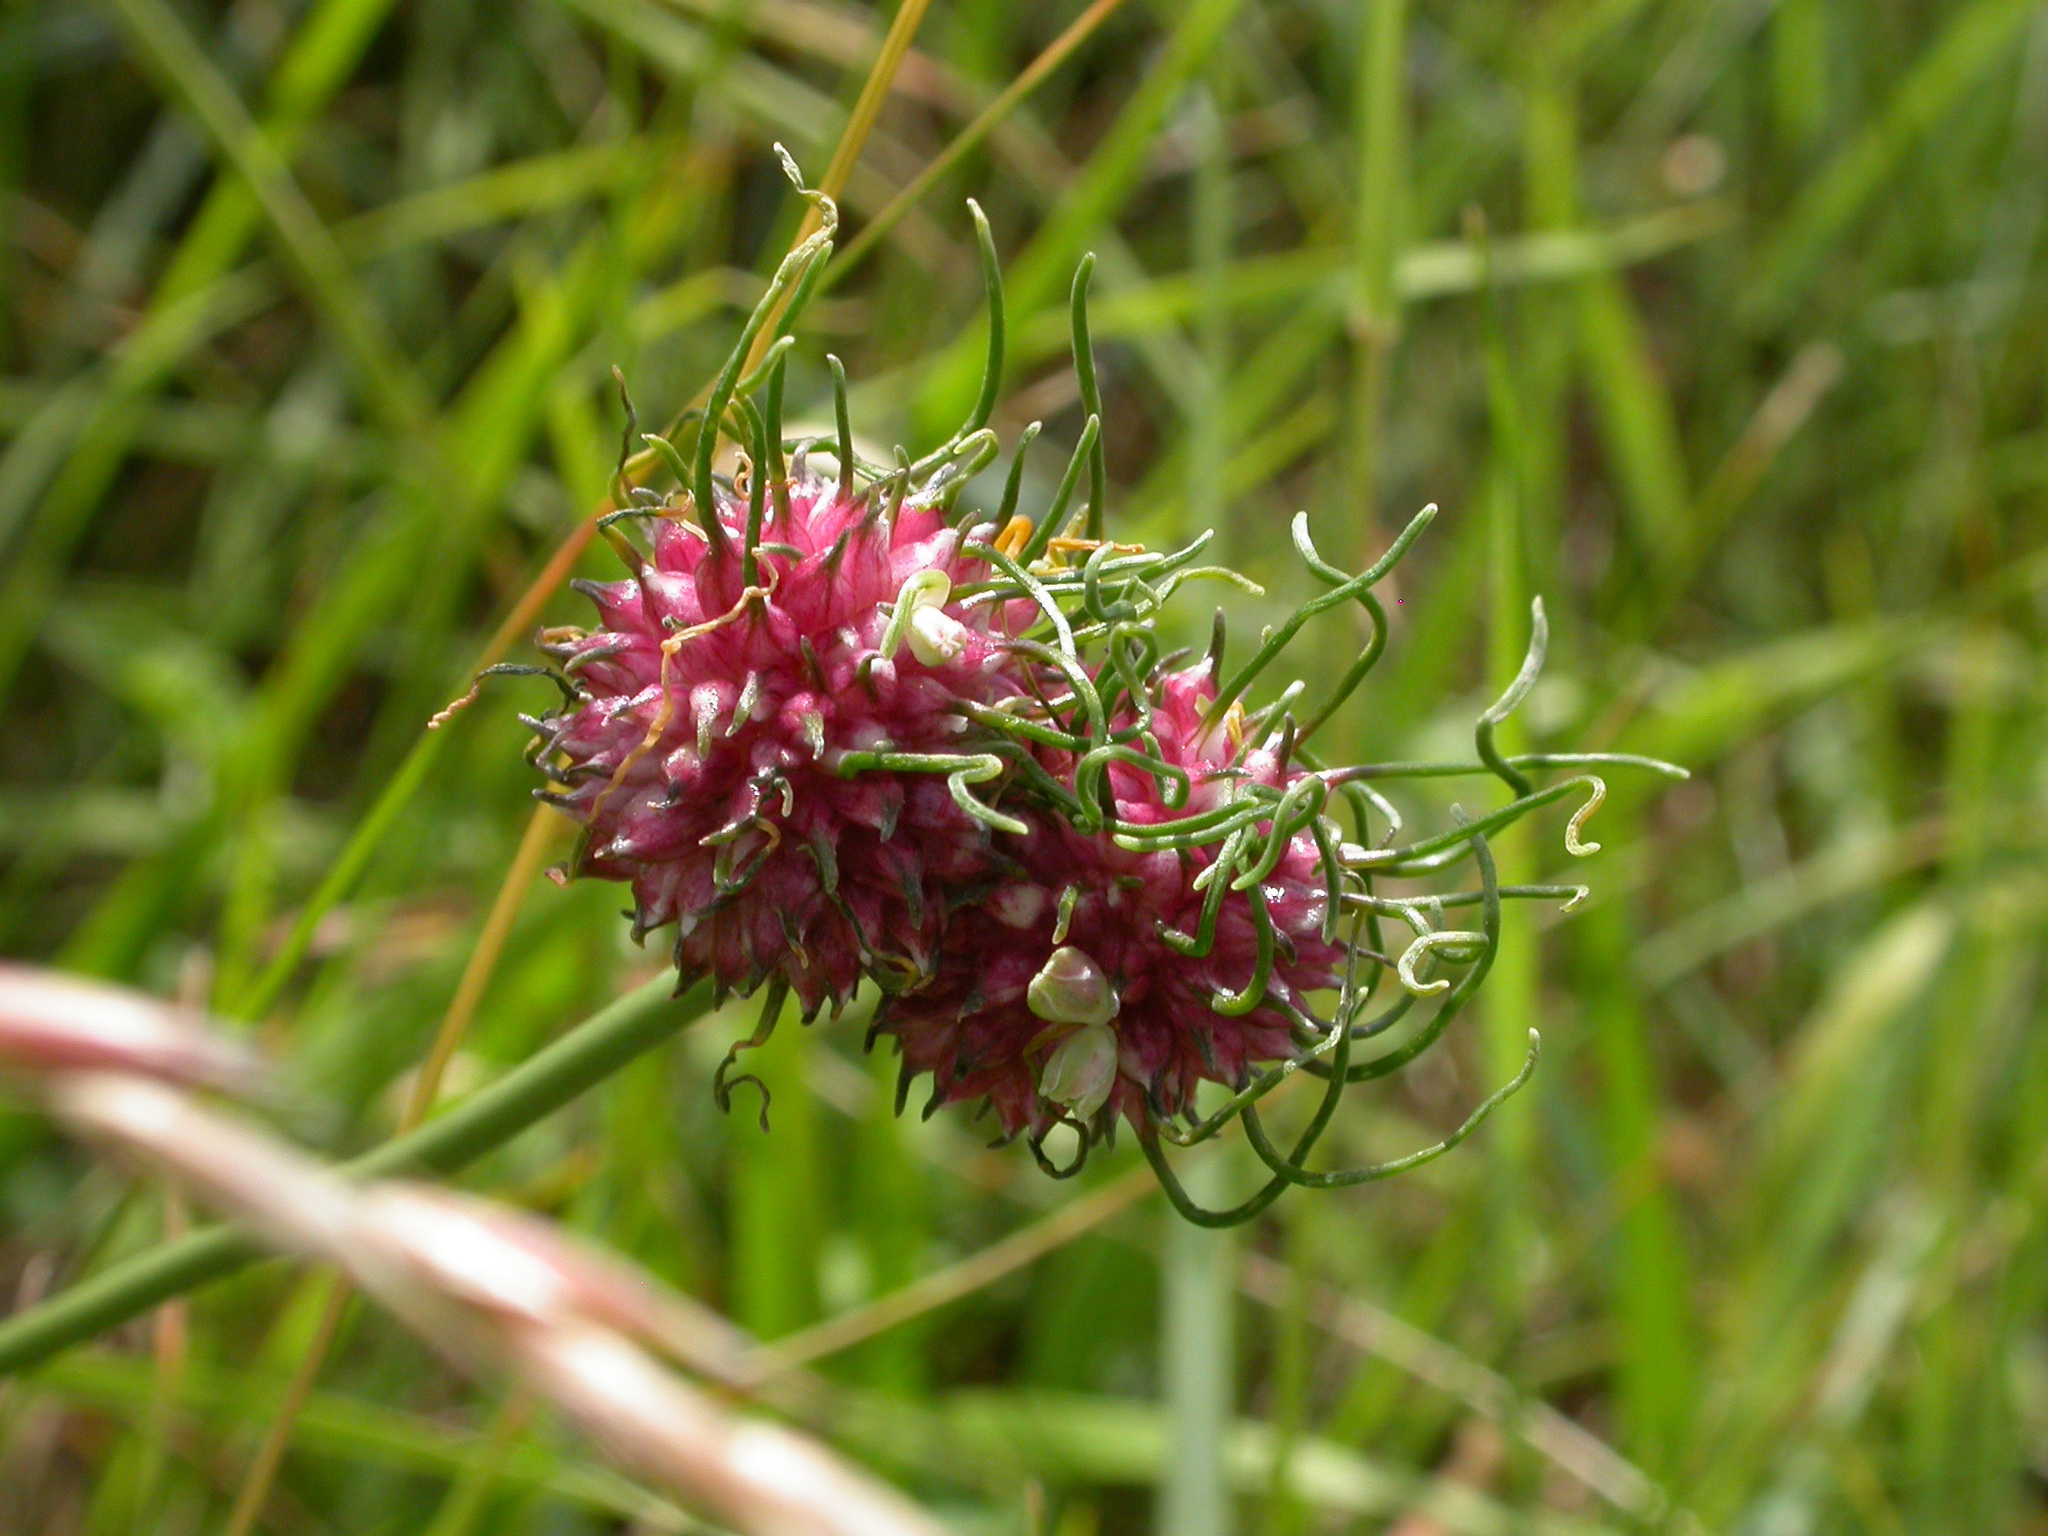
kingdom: Plantae
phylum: Tracheophyta
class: Liliopsida
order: Asparagales
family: Amaryllidaceae
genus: Allium
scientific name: Allium vineale
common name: Crow garlic
